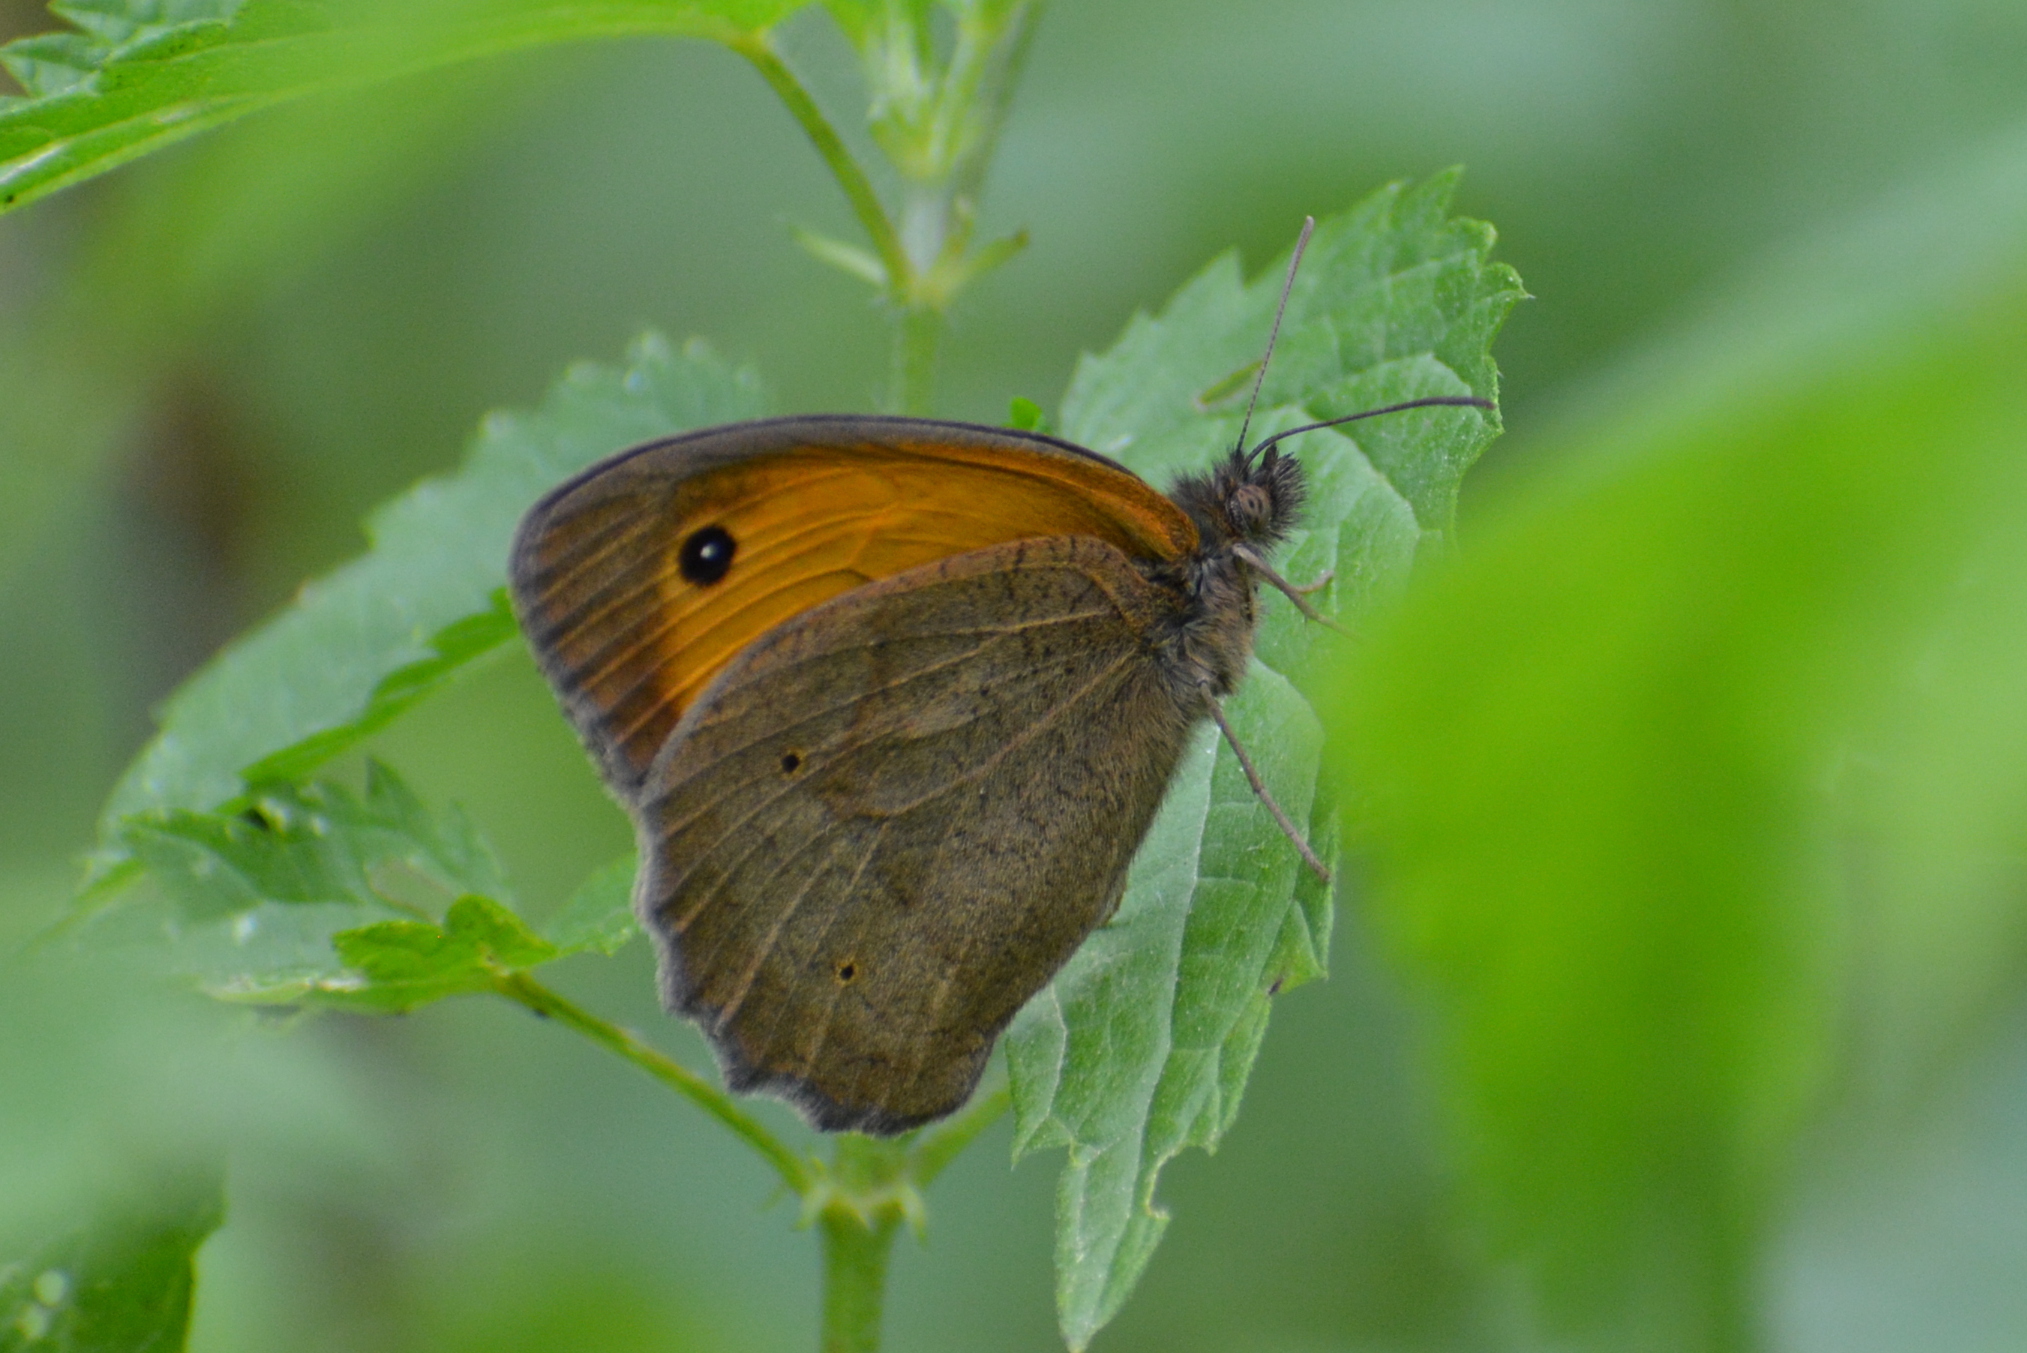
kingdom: Animalia
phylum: Arthropoda
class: Insecta
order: Lepidoptera
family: Nymphalidae
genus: Maniola
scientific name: Maniola jurtina
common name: Meadow brown
